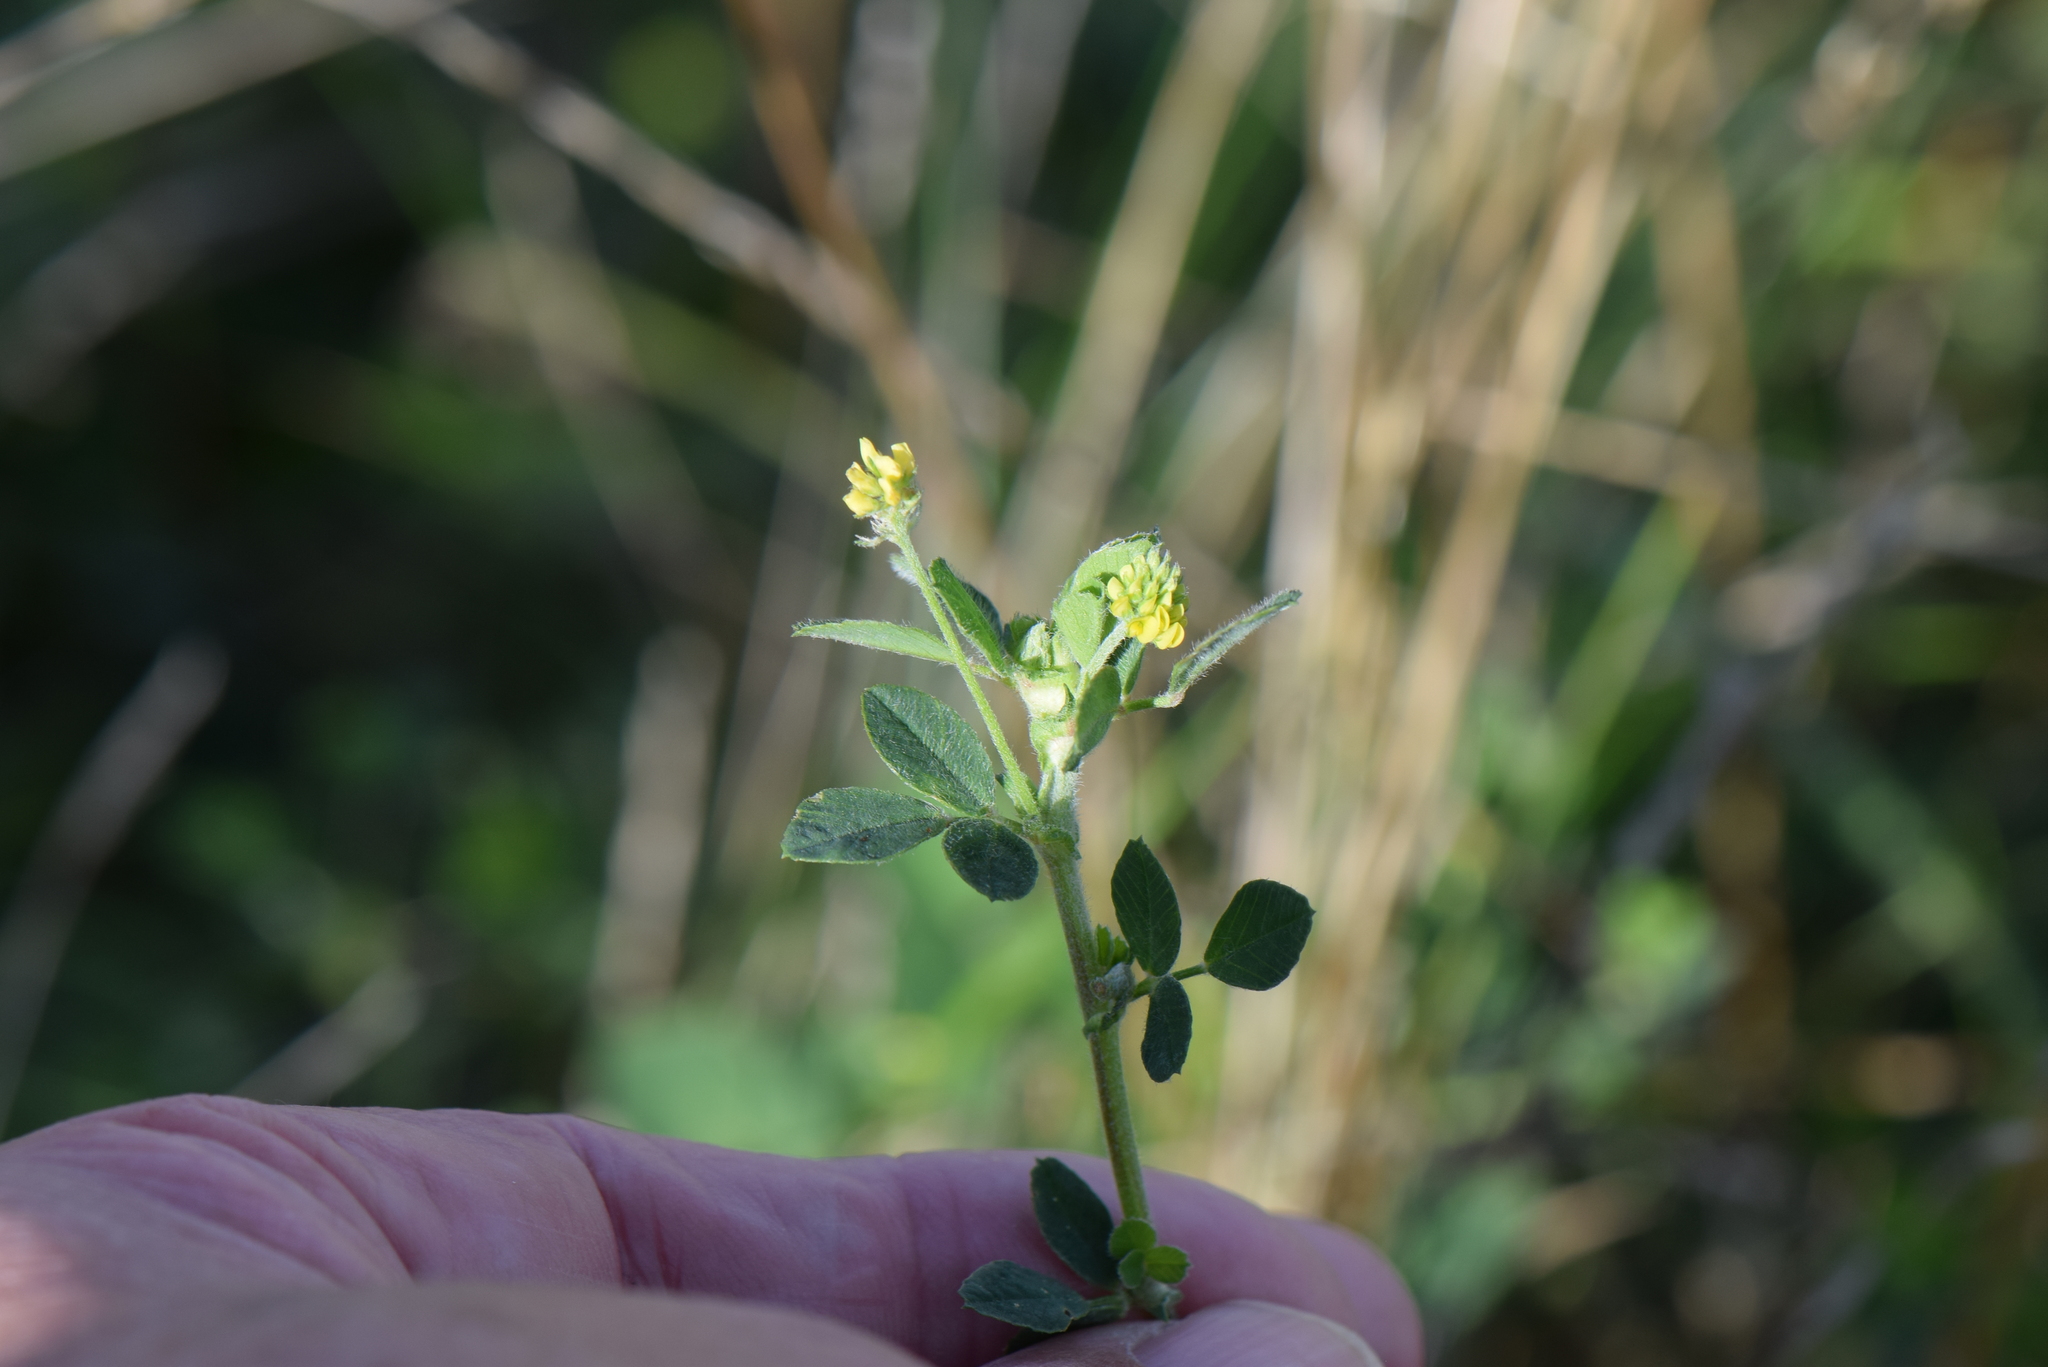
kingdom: Plantae
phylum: Tracheophyta
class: Magnoliopsida
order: Fabales
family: Fabaceae
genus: Medicago
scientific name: Medicago lupulina
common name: Black medick
